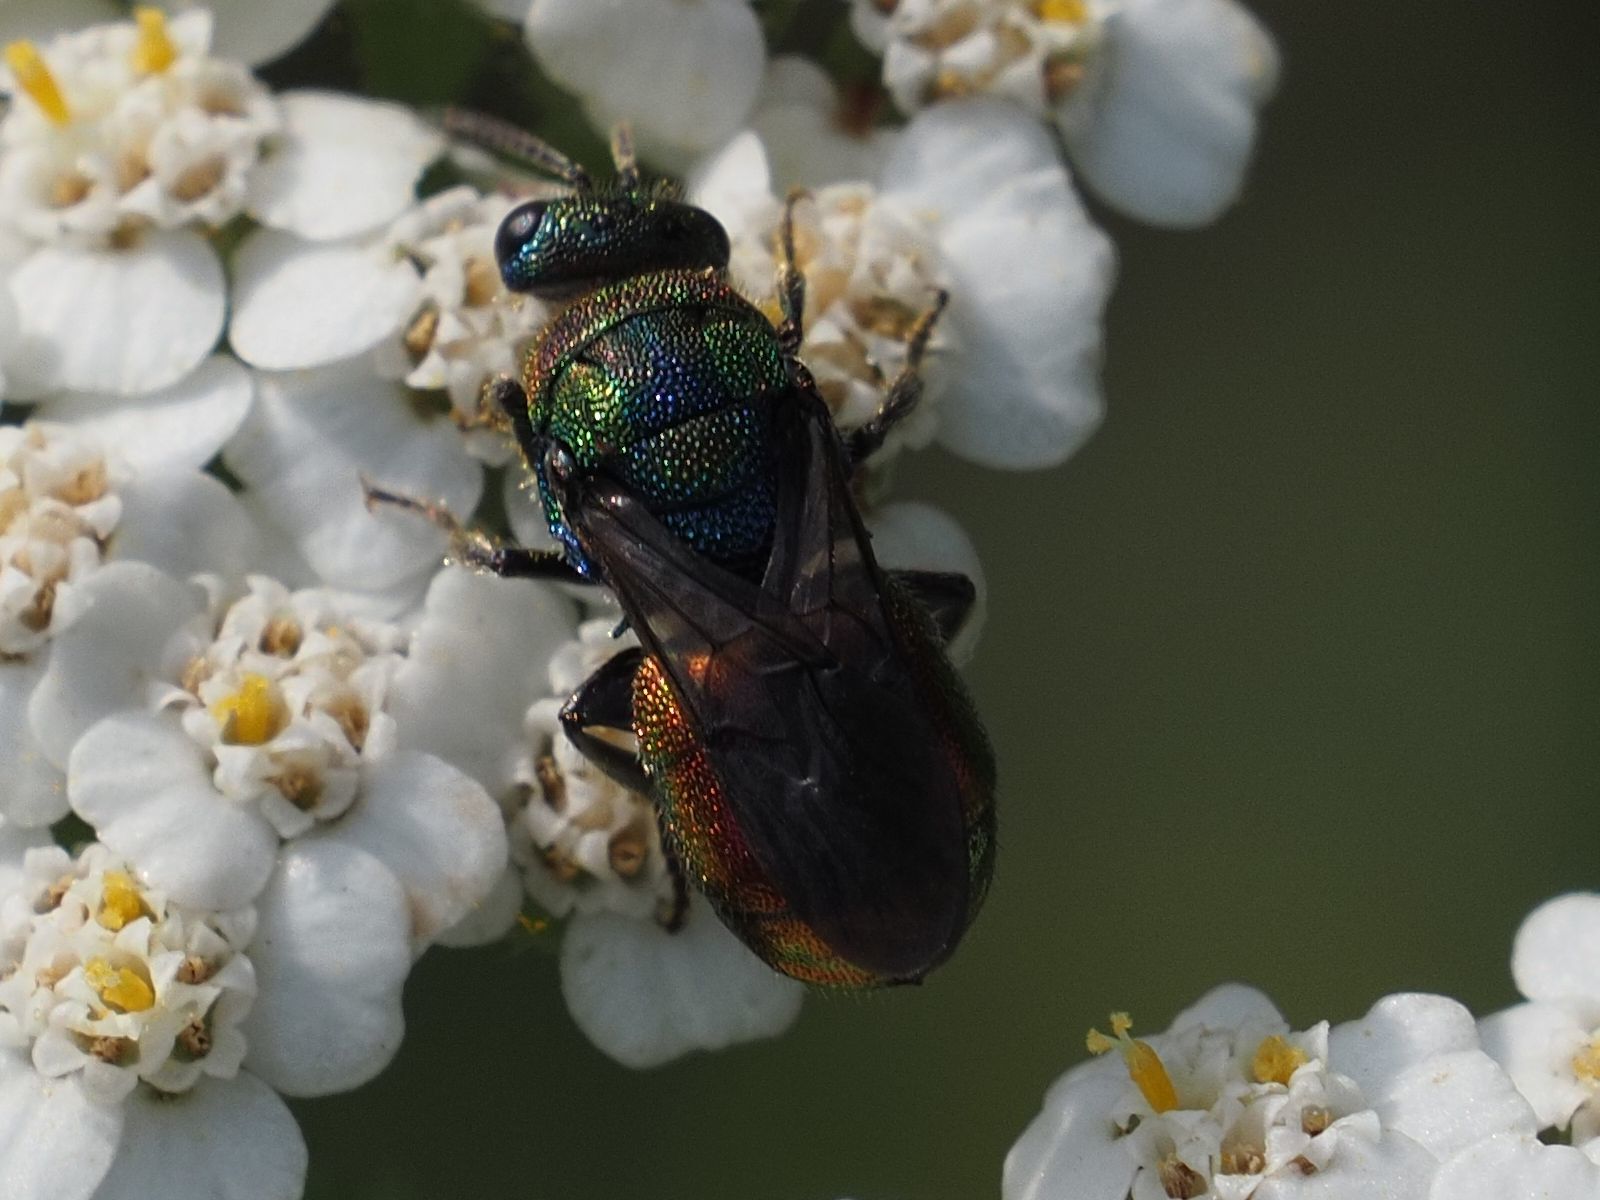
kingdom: Animalia
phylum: Arthropoda
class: Insecta
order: Hymenoptera
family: Chrysididae
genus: Hedychrum
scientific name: Hedychrum rutilans
